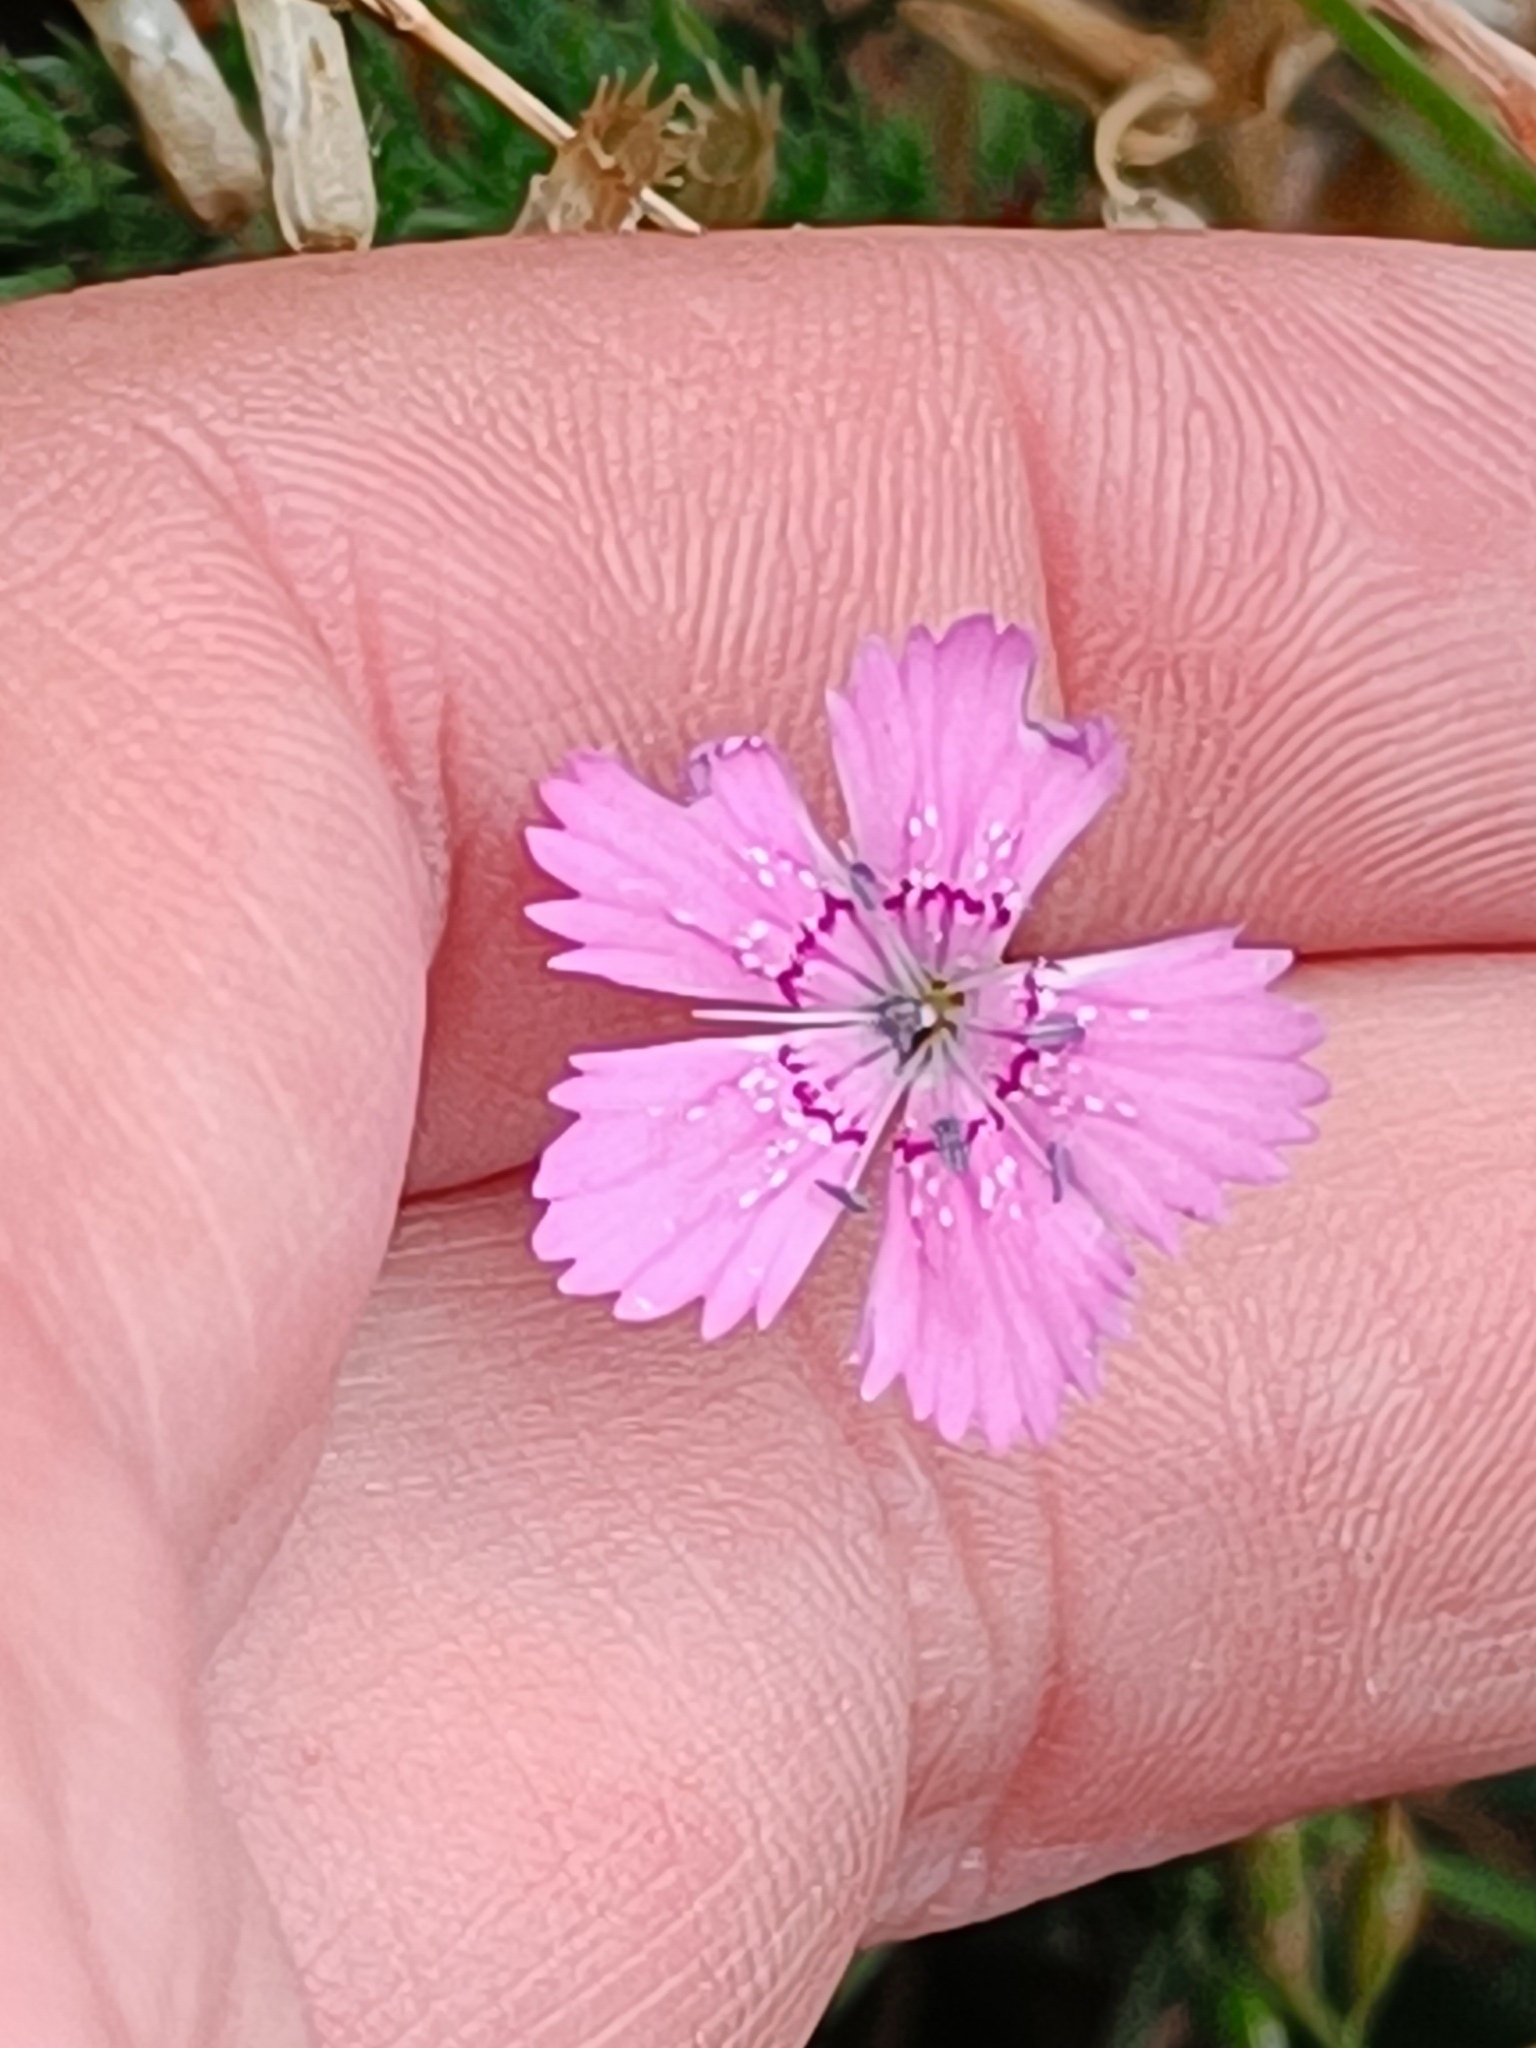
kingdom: Plantae
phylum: Tracheophyta
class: Magnoliopsida
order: Caryophyllales
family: Caryophyllaceae
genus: Dianthus
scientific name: Dianthus deltoides
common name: Maiden pink
